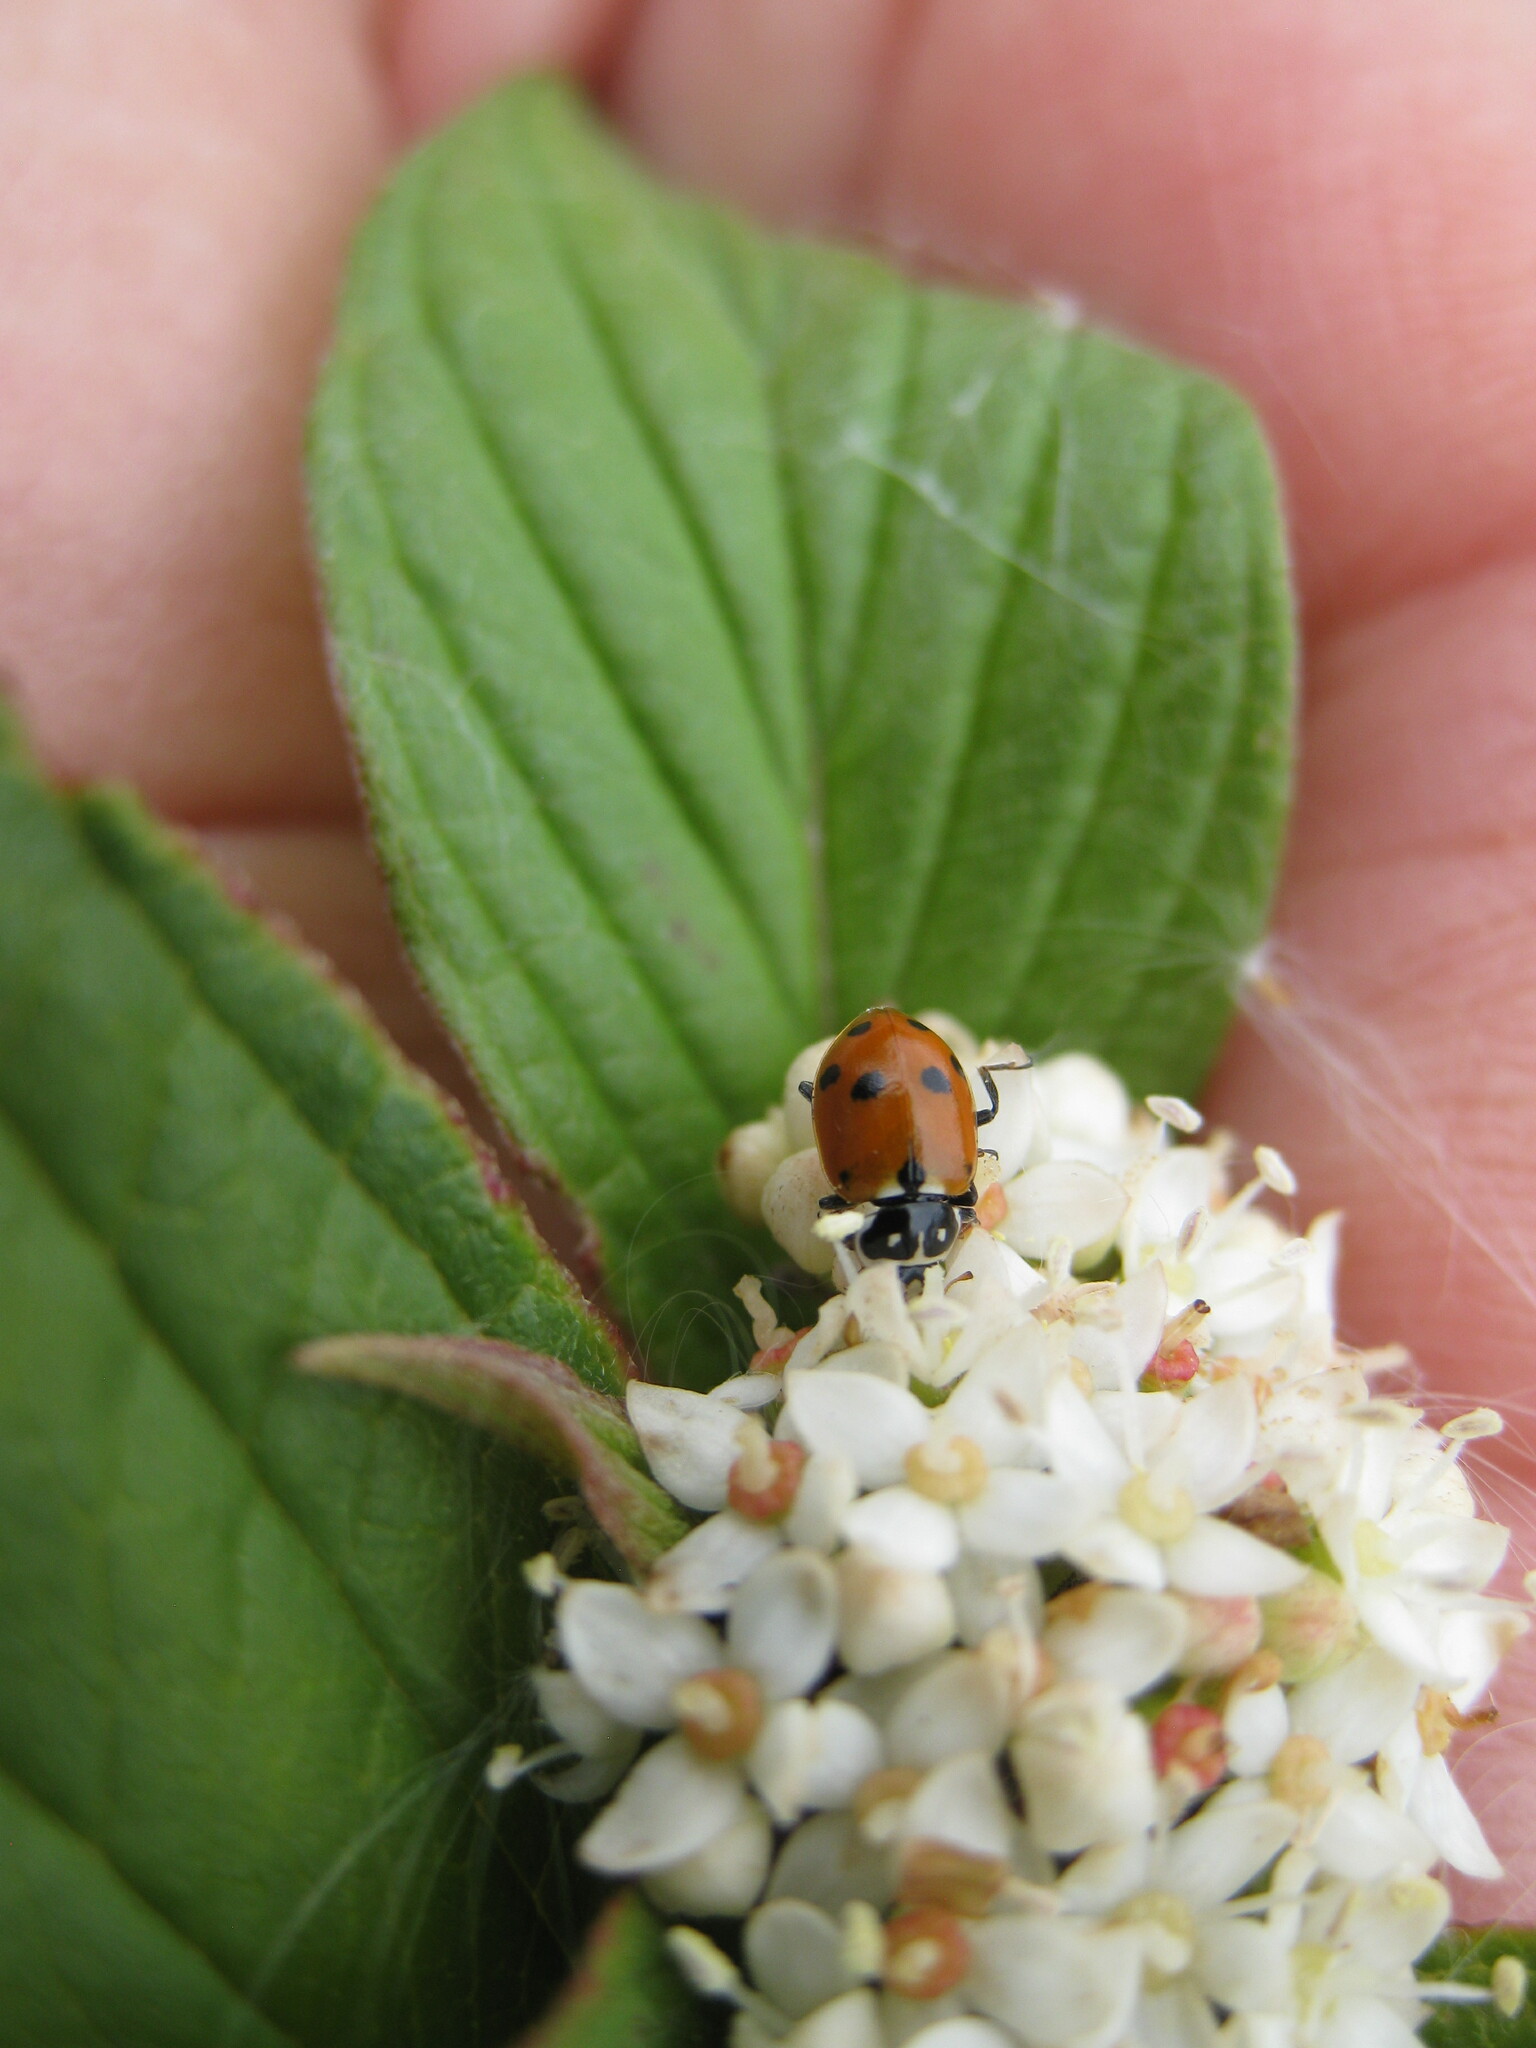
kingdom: Animalia
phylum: Arthropoda
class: Insecta
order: Coleoptera
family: Coccinellidae
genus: Hippodamia
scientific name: Hippodamia variegata
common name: Ladybird beetle
